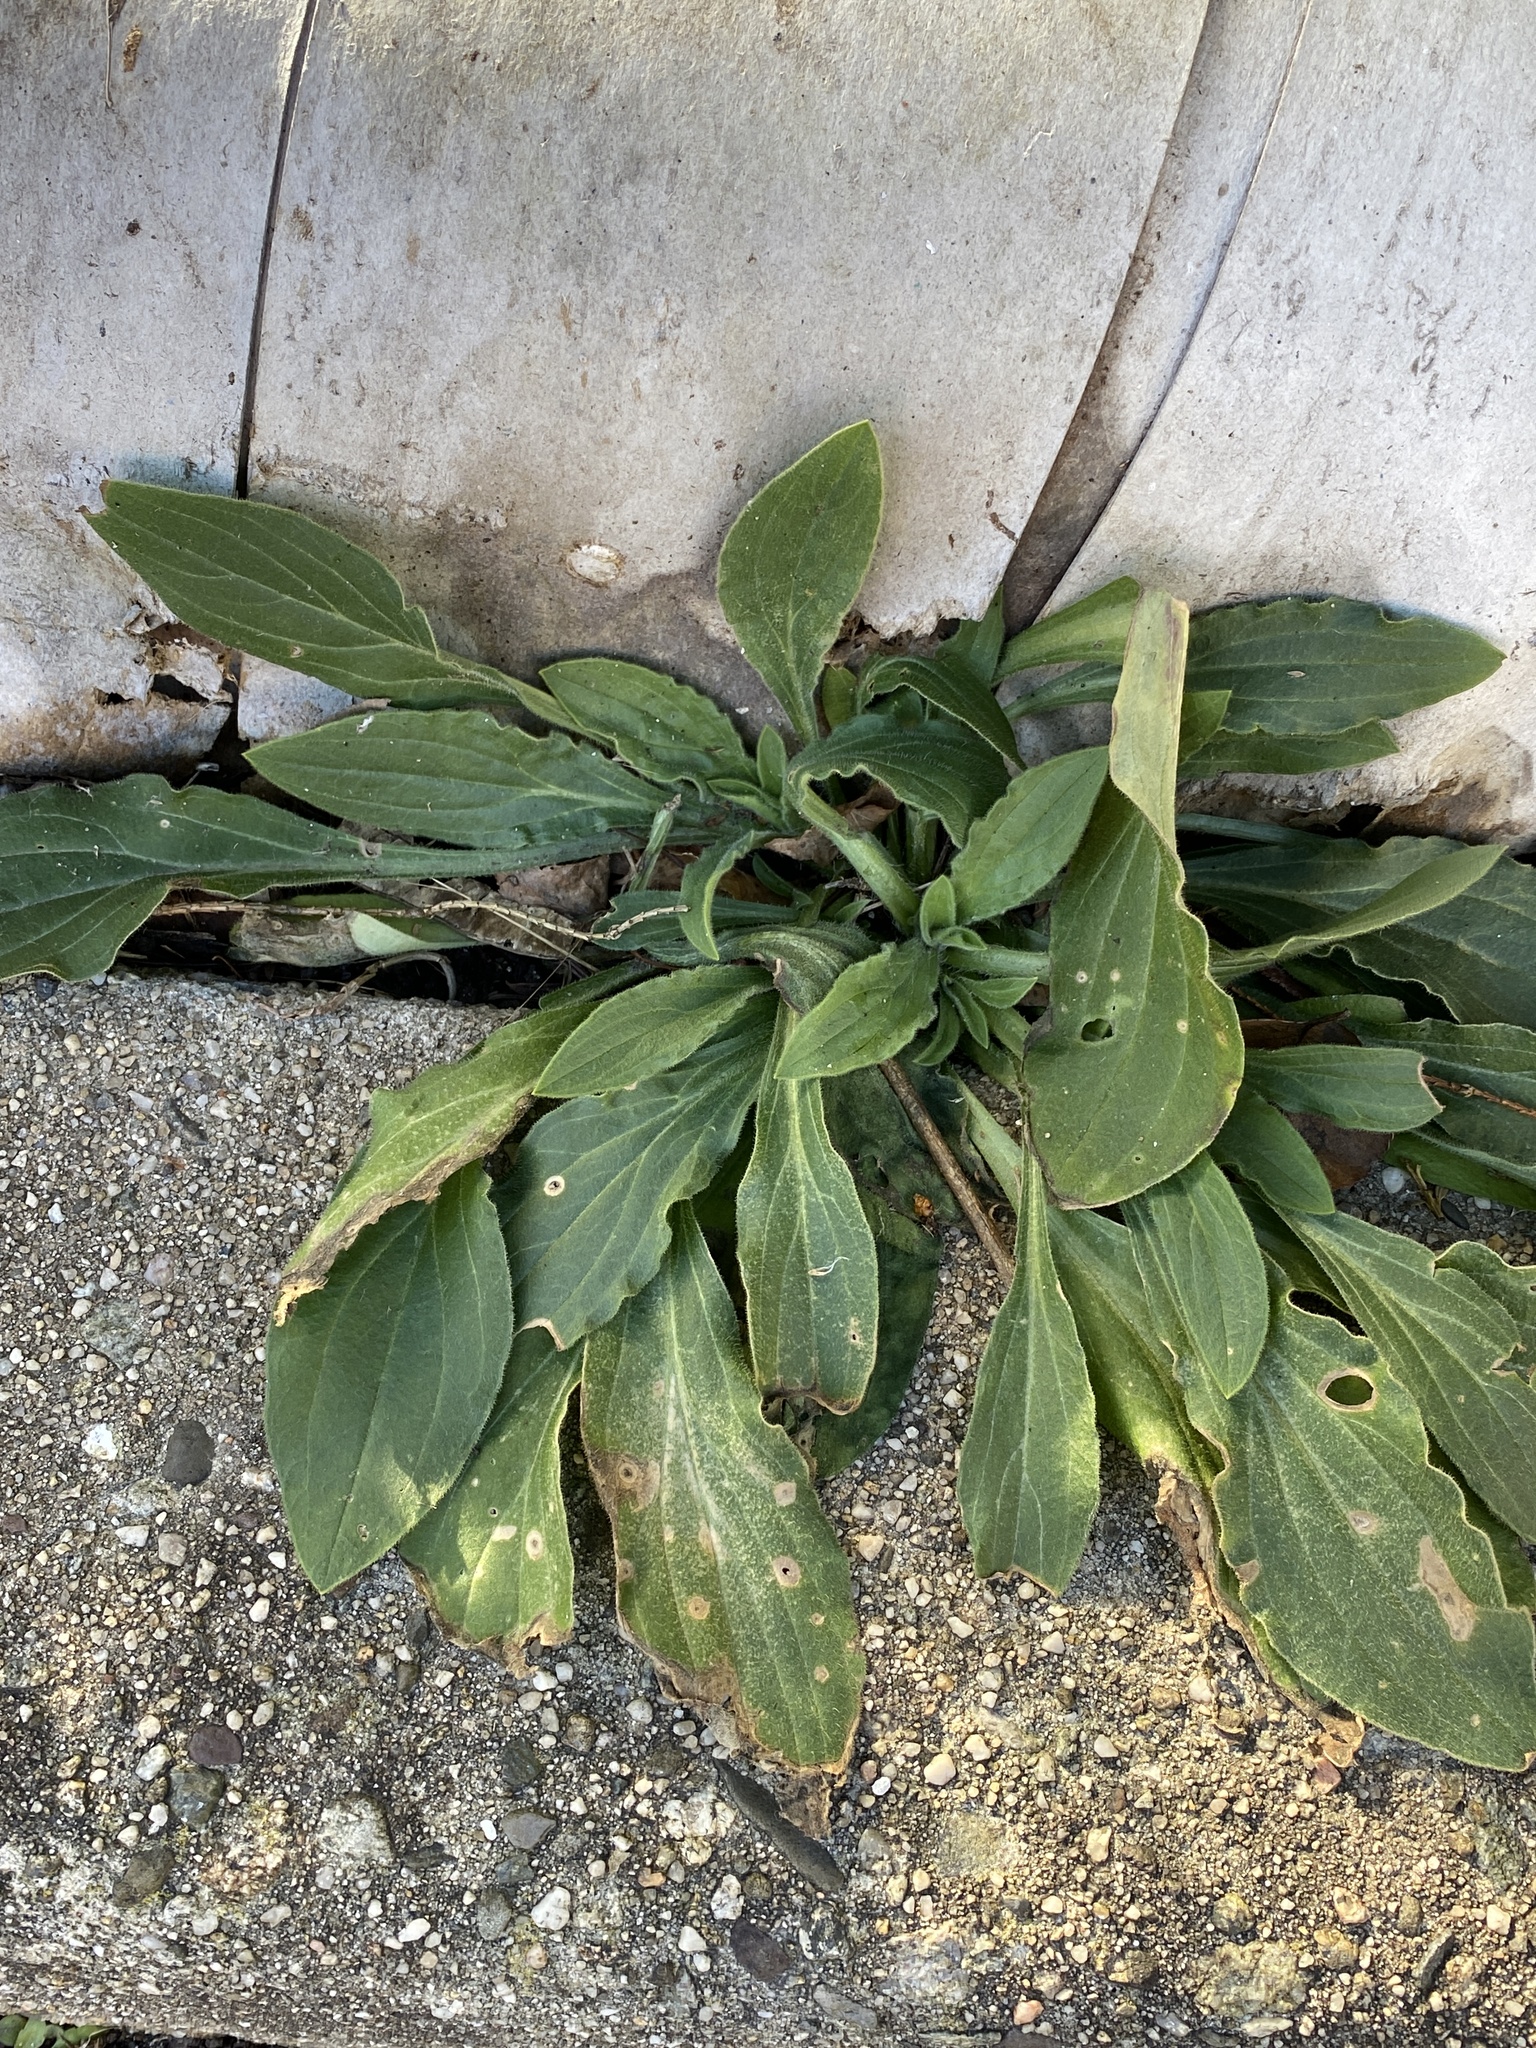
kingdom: Plantae
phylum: Tracheophyta
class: Magnoliopsida
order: Caryophyllales
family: Caryophyllaceae
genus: Silene
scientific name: Silene latifolia
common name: White campion
